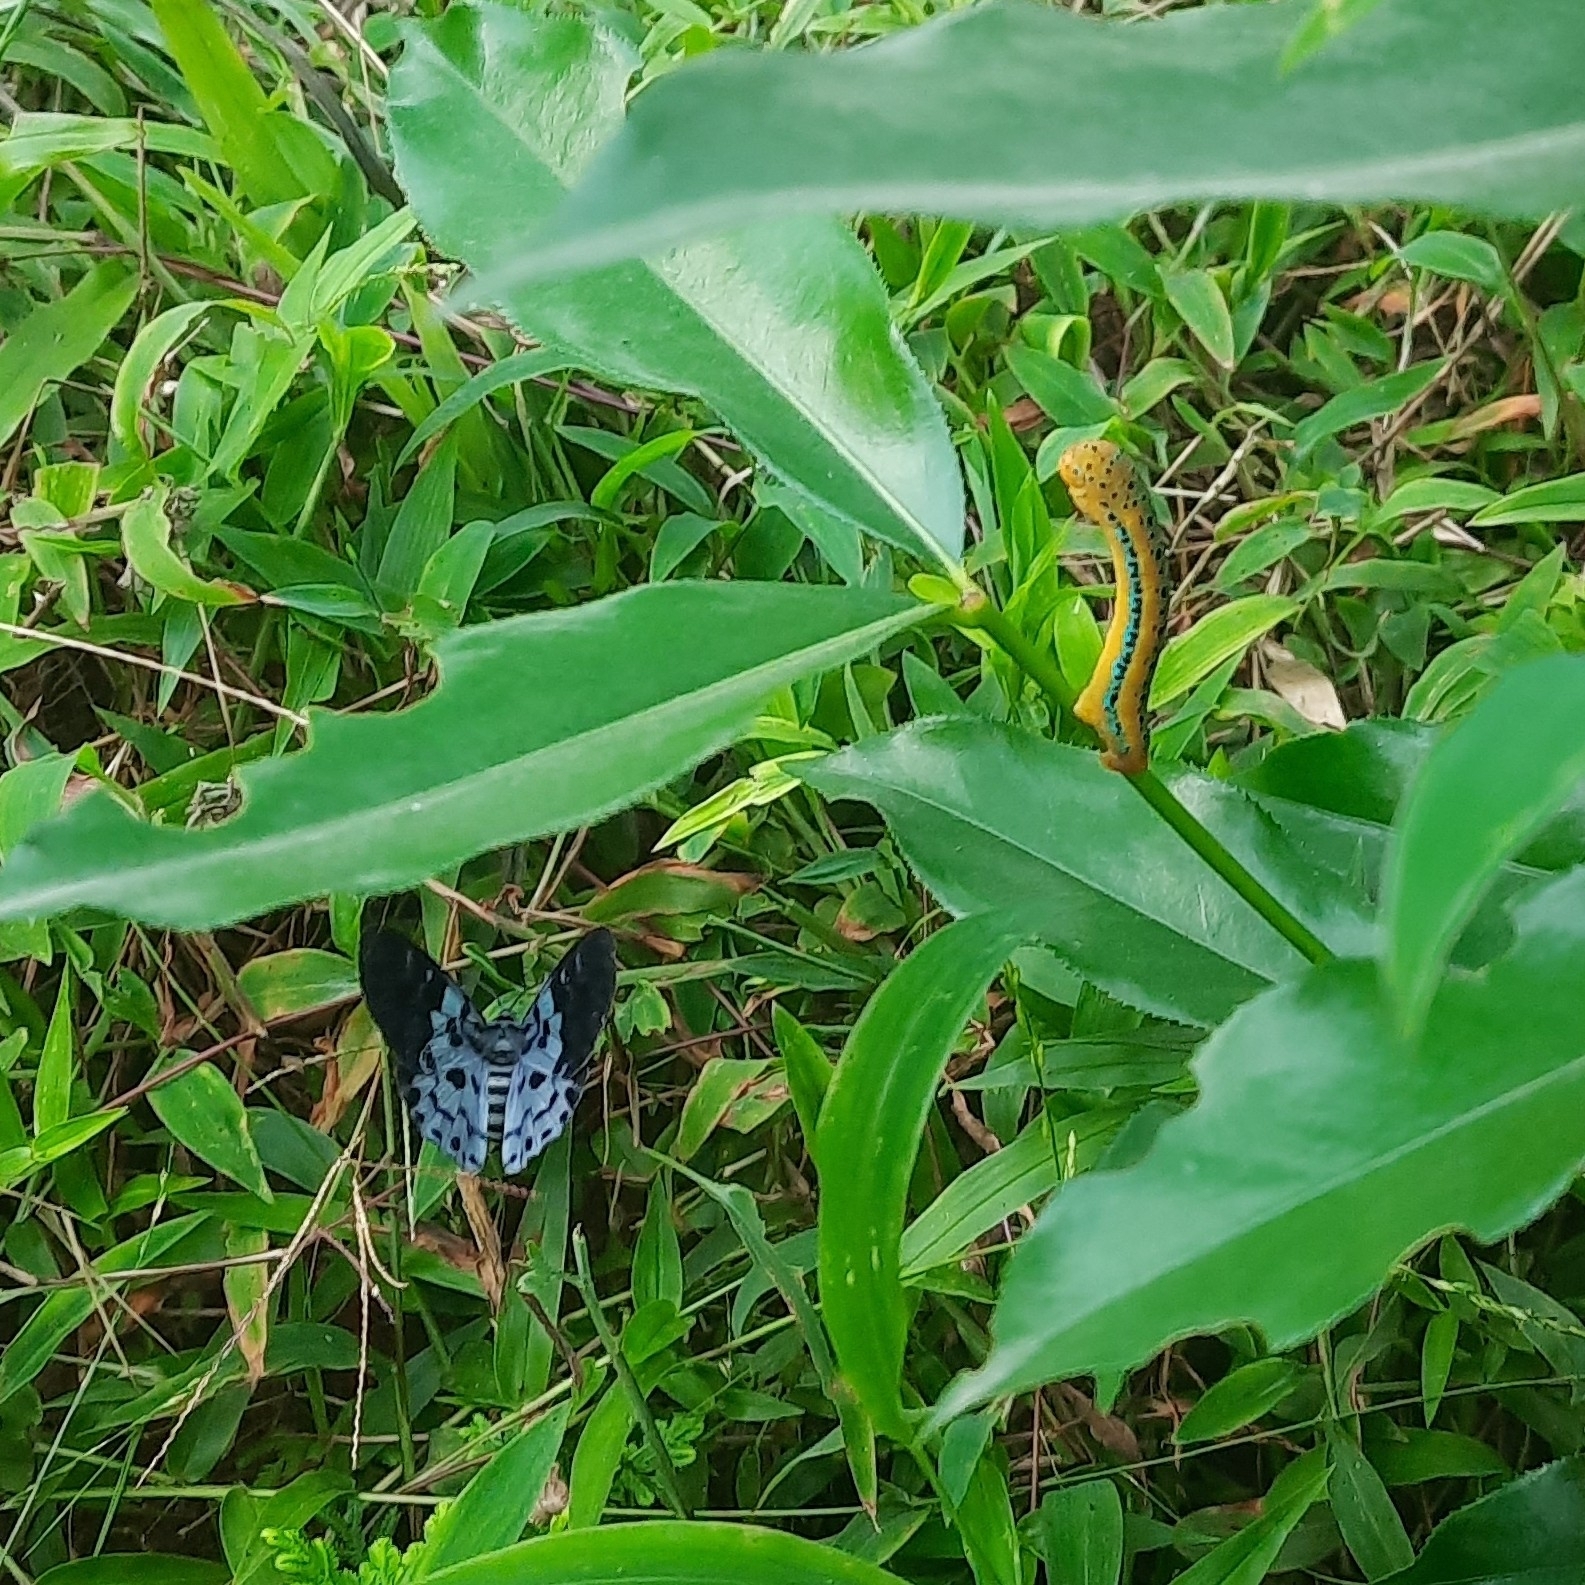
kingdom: Animalia
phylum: Arthropoda
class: Insecta
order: Lepidoptera
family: Geometridae
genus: Dysphania
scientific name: Dysphania percota
